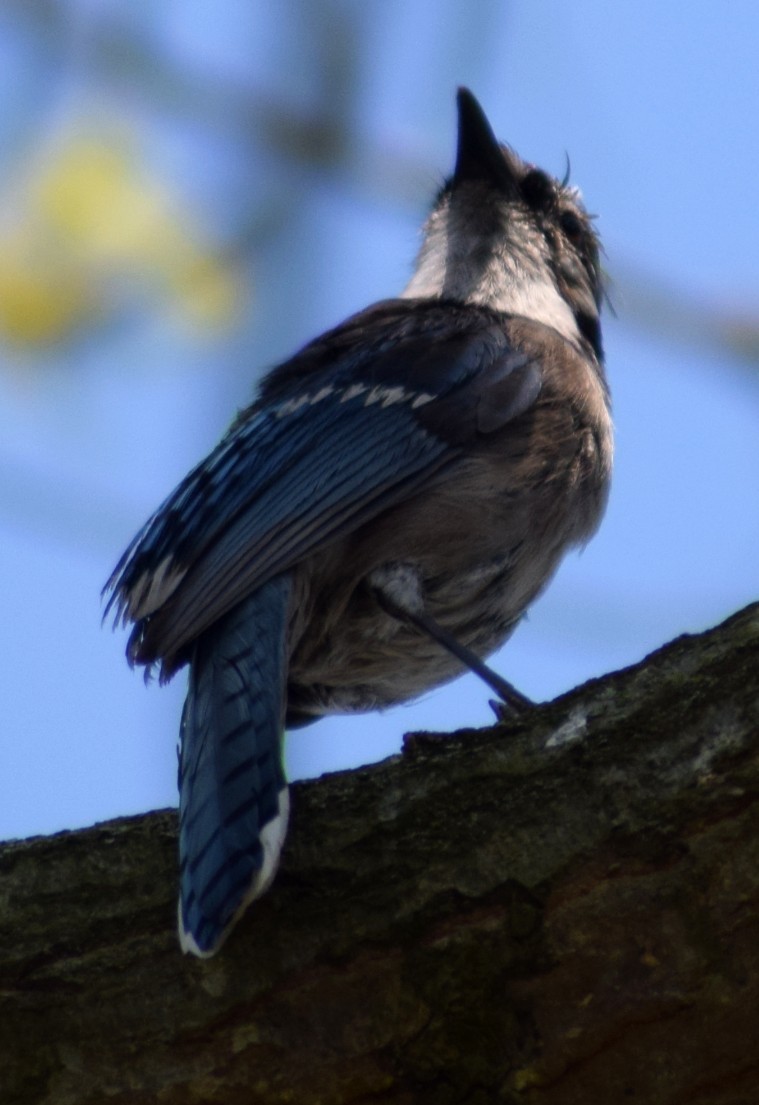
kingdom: Animalia
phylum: Chordata
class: Aves
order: Passeriformes
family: Corvidae
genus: Cyanocitta
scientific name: Cyanocitta cristata
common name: Blue jay
